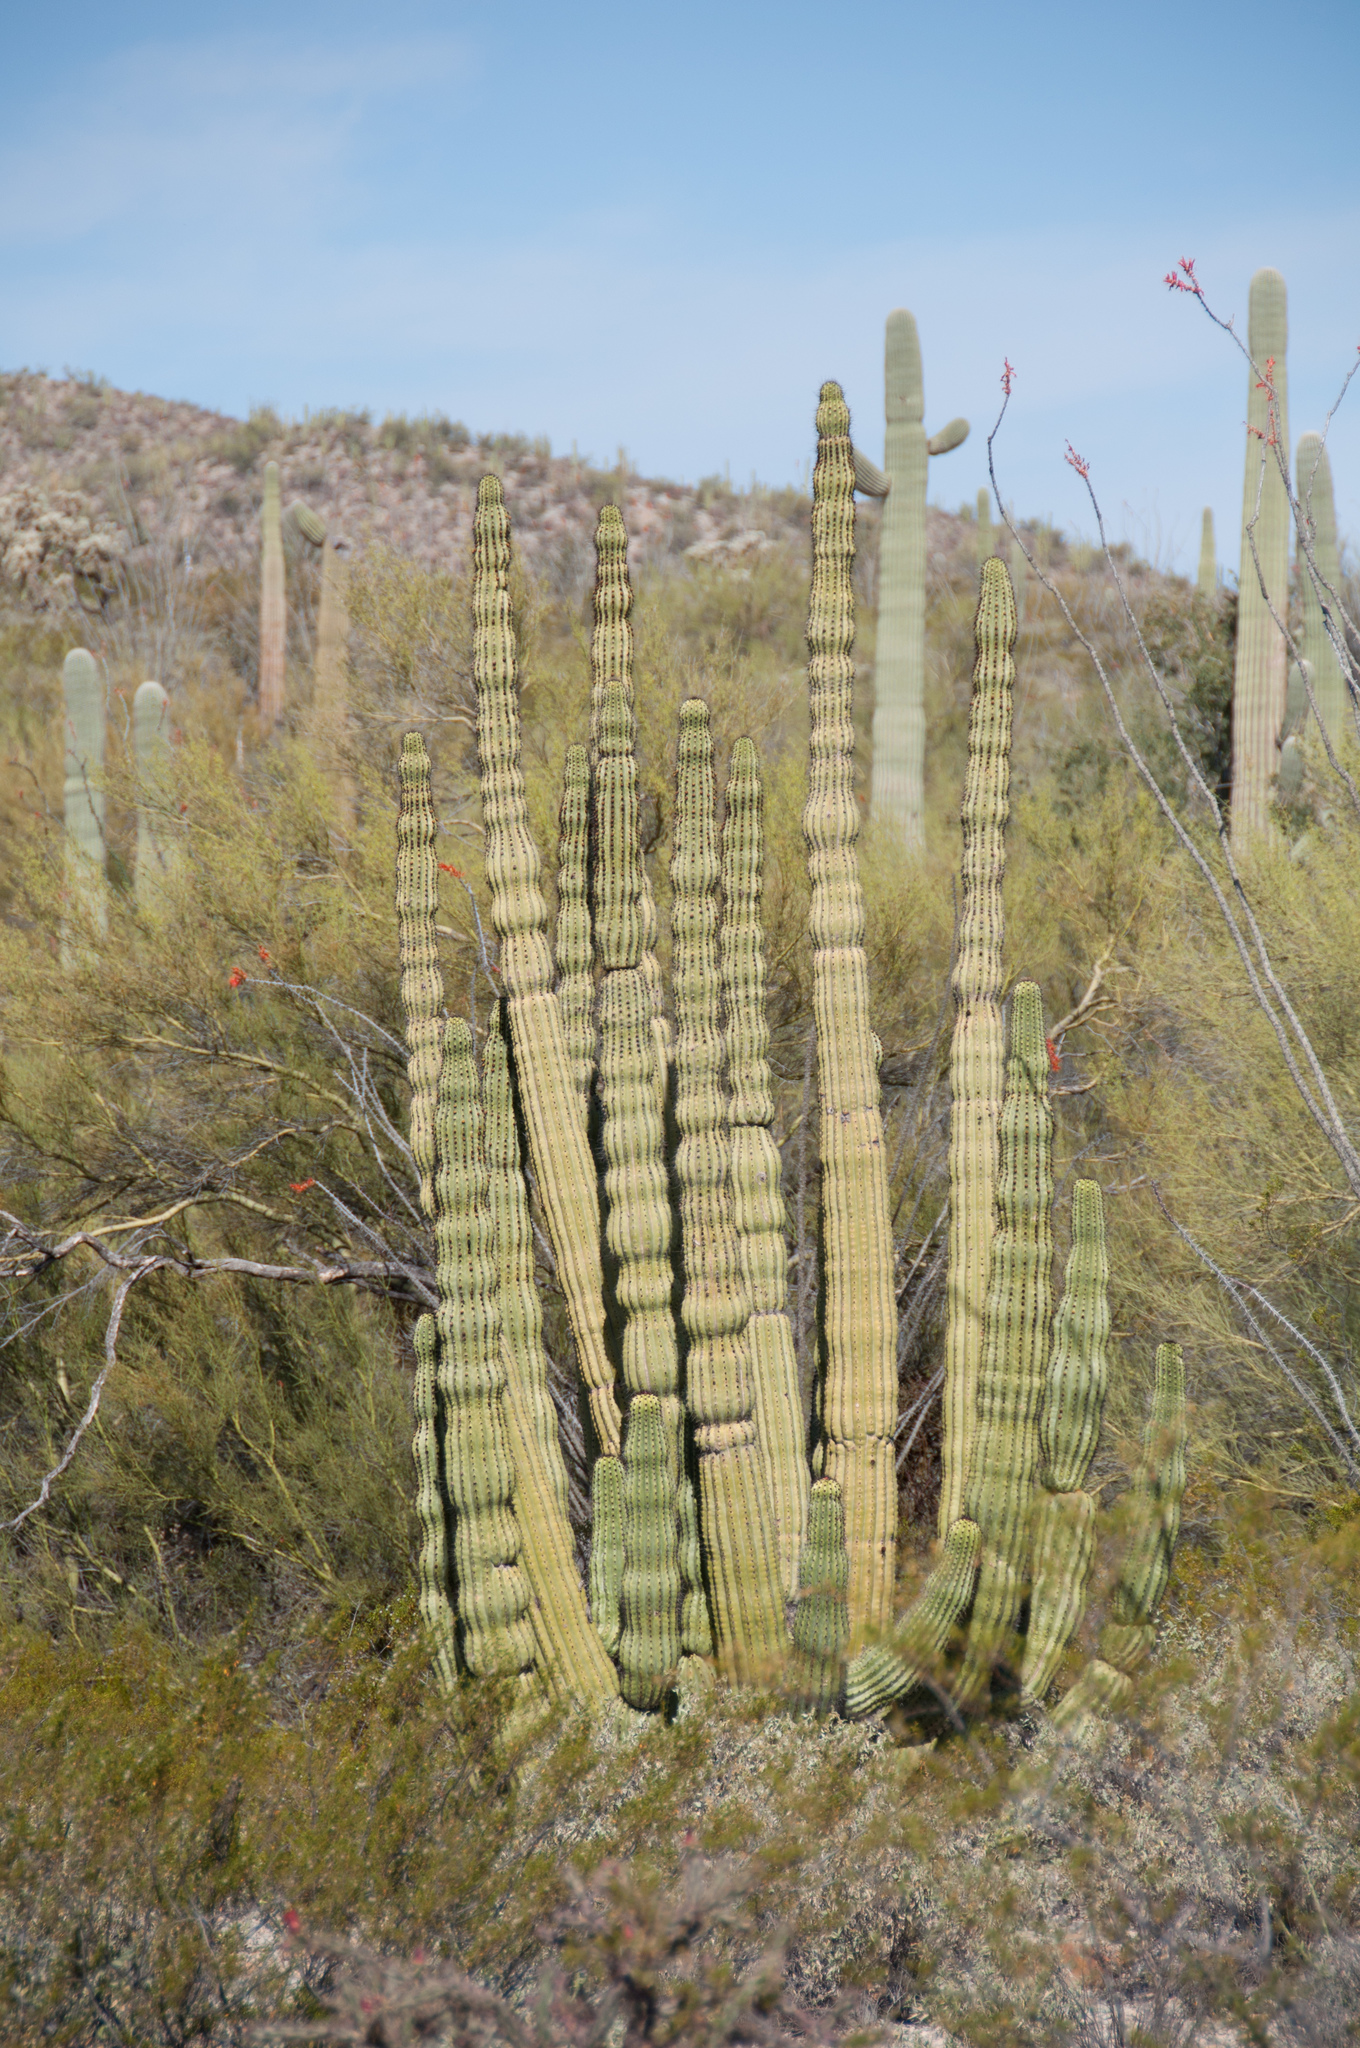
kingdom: Plantae
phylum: Tracheophyta
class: Magnoliopsida
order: Caryophyllales
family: Cactaceae
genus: Stenocereus
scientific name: Stenocereus thurberi
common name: Organ pipe cactus
